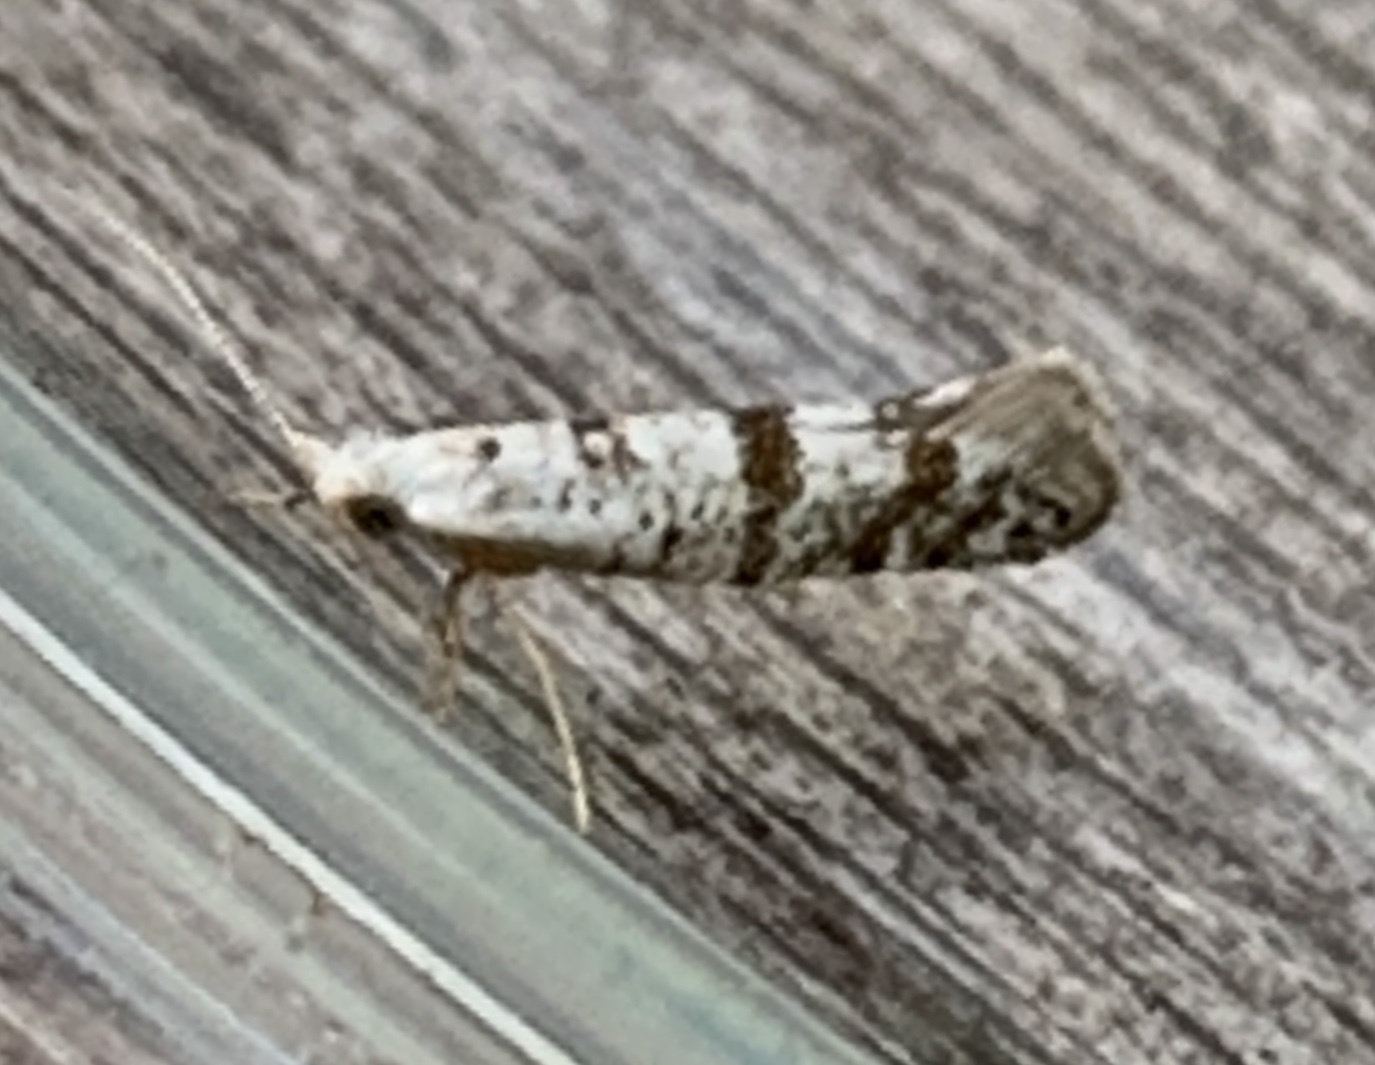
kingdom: Animalia
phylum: Arthropoda
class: Insecta
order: Lepidoptera
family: Argyresthiidae
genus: Argyresthia
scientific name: Argyresthia thuiella
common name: Arborvitae leafminer
